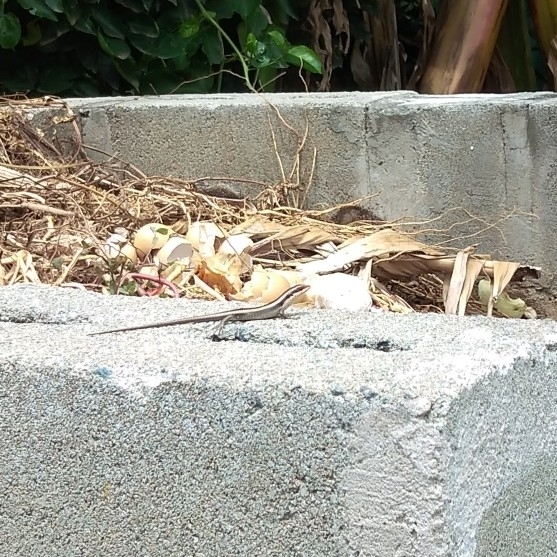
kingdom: Animalia
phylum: Chordata
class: Squamata
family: Scincidae
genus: Trachylepis
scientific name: Trachylepis striata
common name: African striped mabuya
